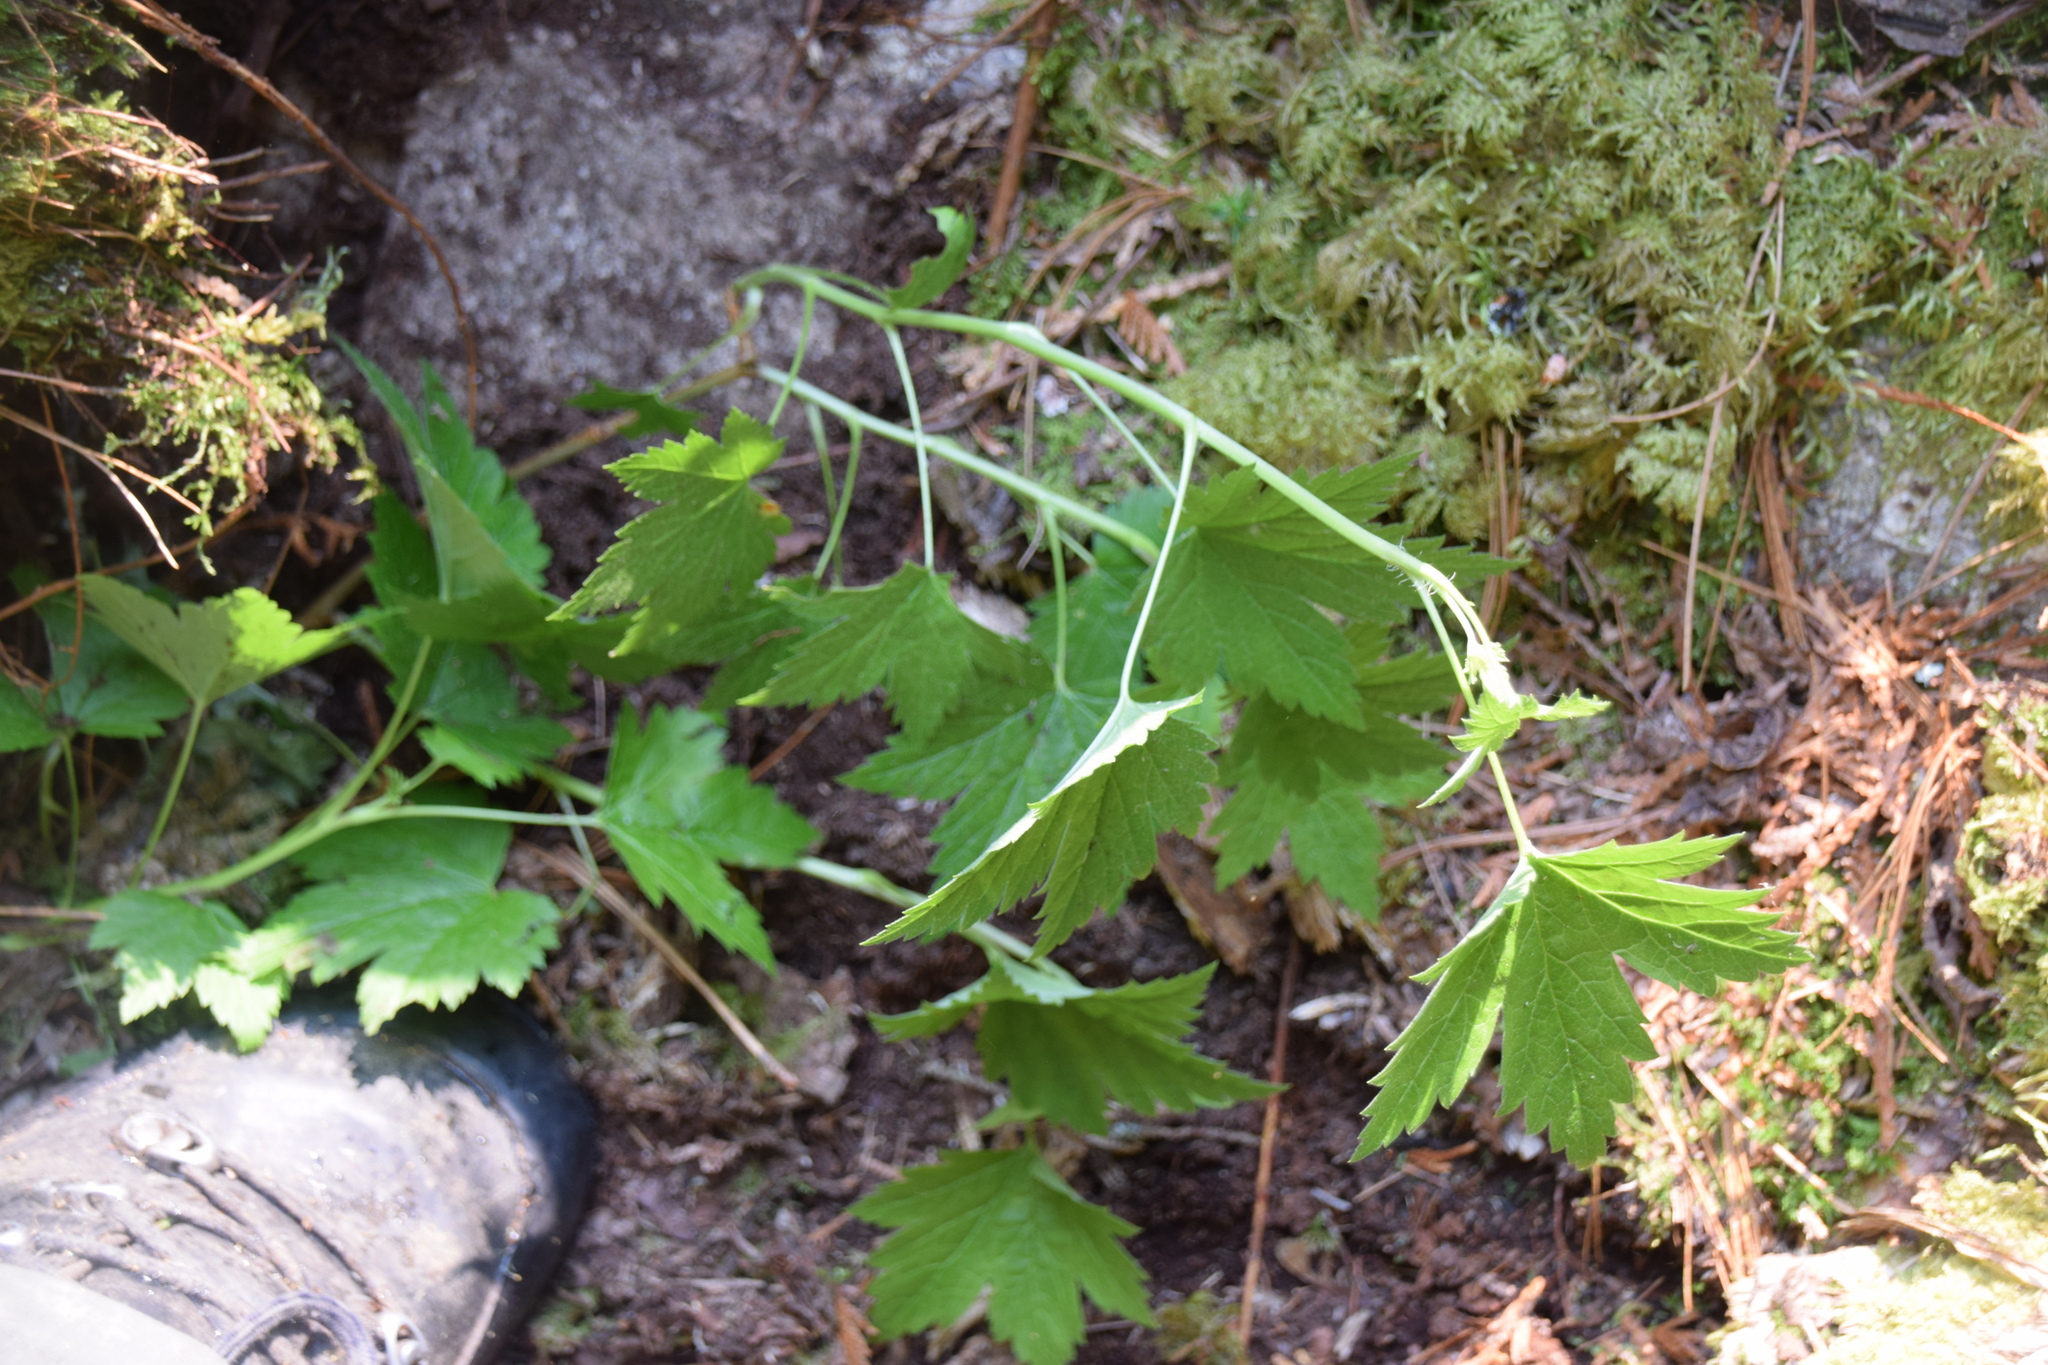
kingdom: Plantae
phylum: Tracheophyta
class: Magnoliopsida
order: Saxifragales
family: Grossulariaceae
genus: Ribes
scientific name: Ribes glandulosum
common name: Skunk currant
